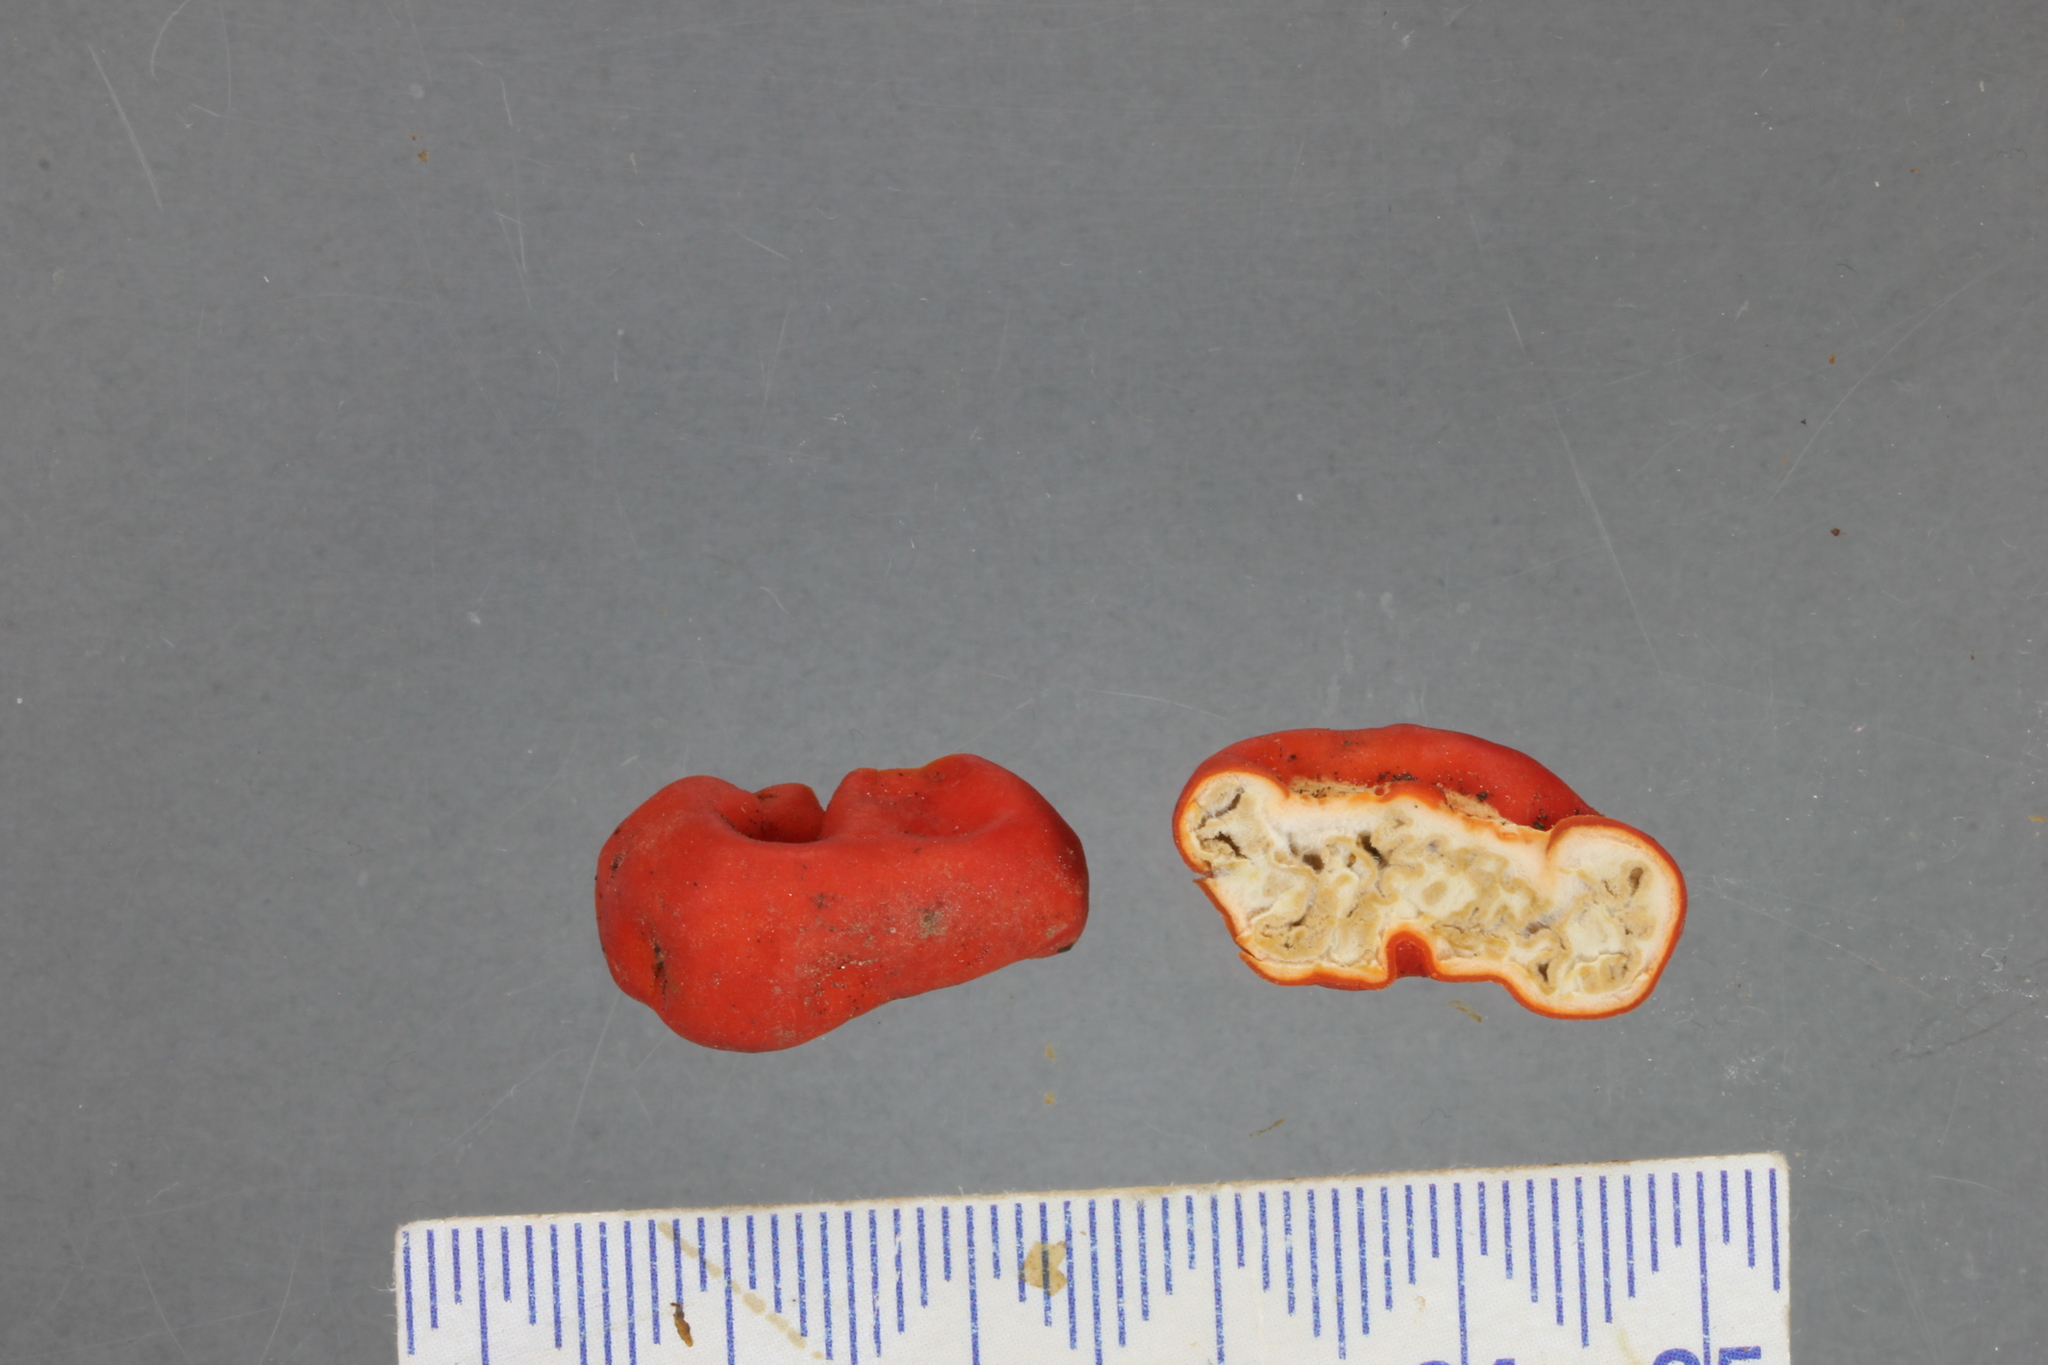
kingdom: Fungi
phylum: Ascomycota
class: Pezizomycetes
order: Pezizales
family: Pyronemataceae
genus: Paurocotylis
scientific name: Paurocotylis pila
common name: Scarlet berry truffle
